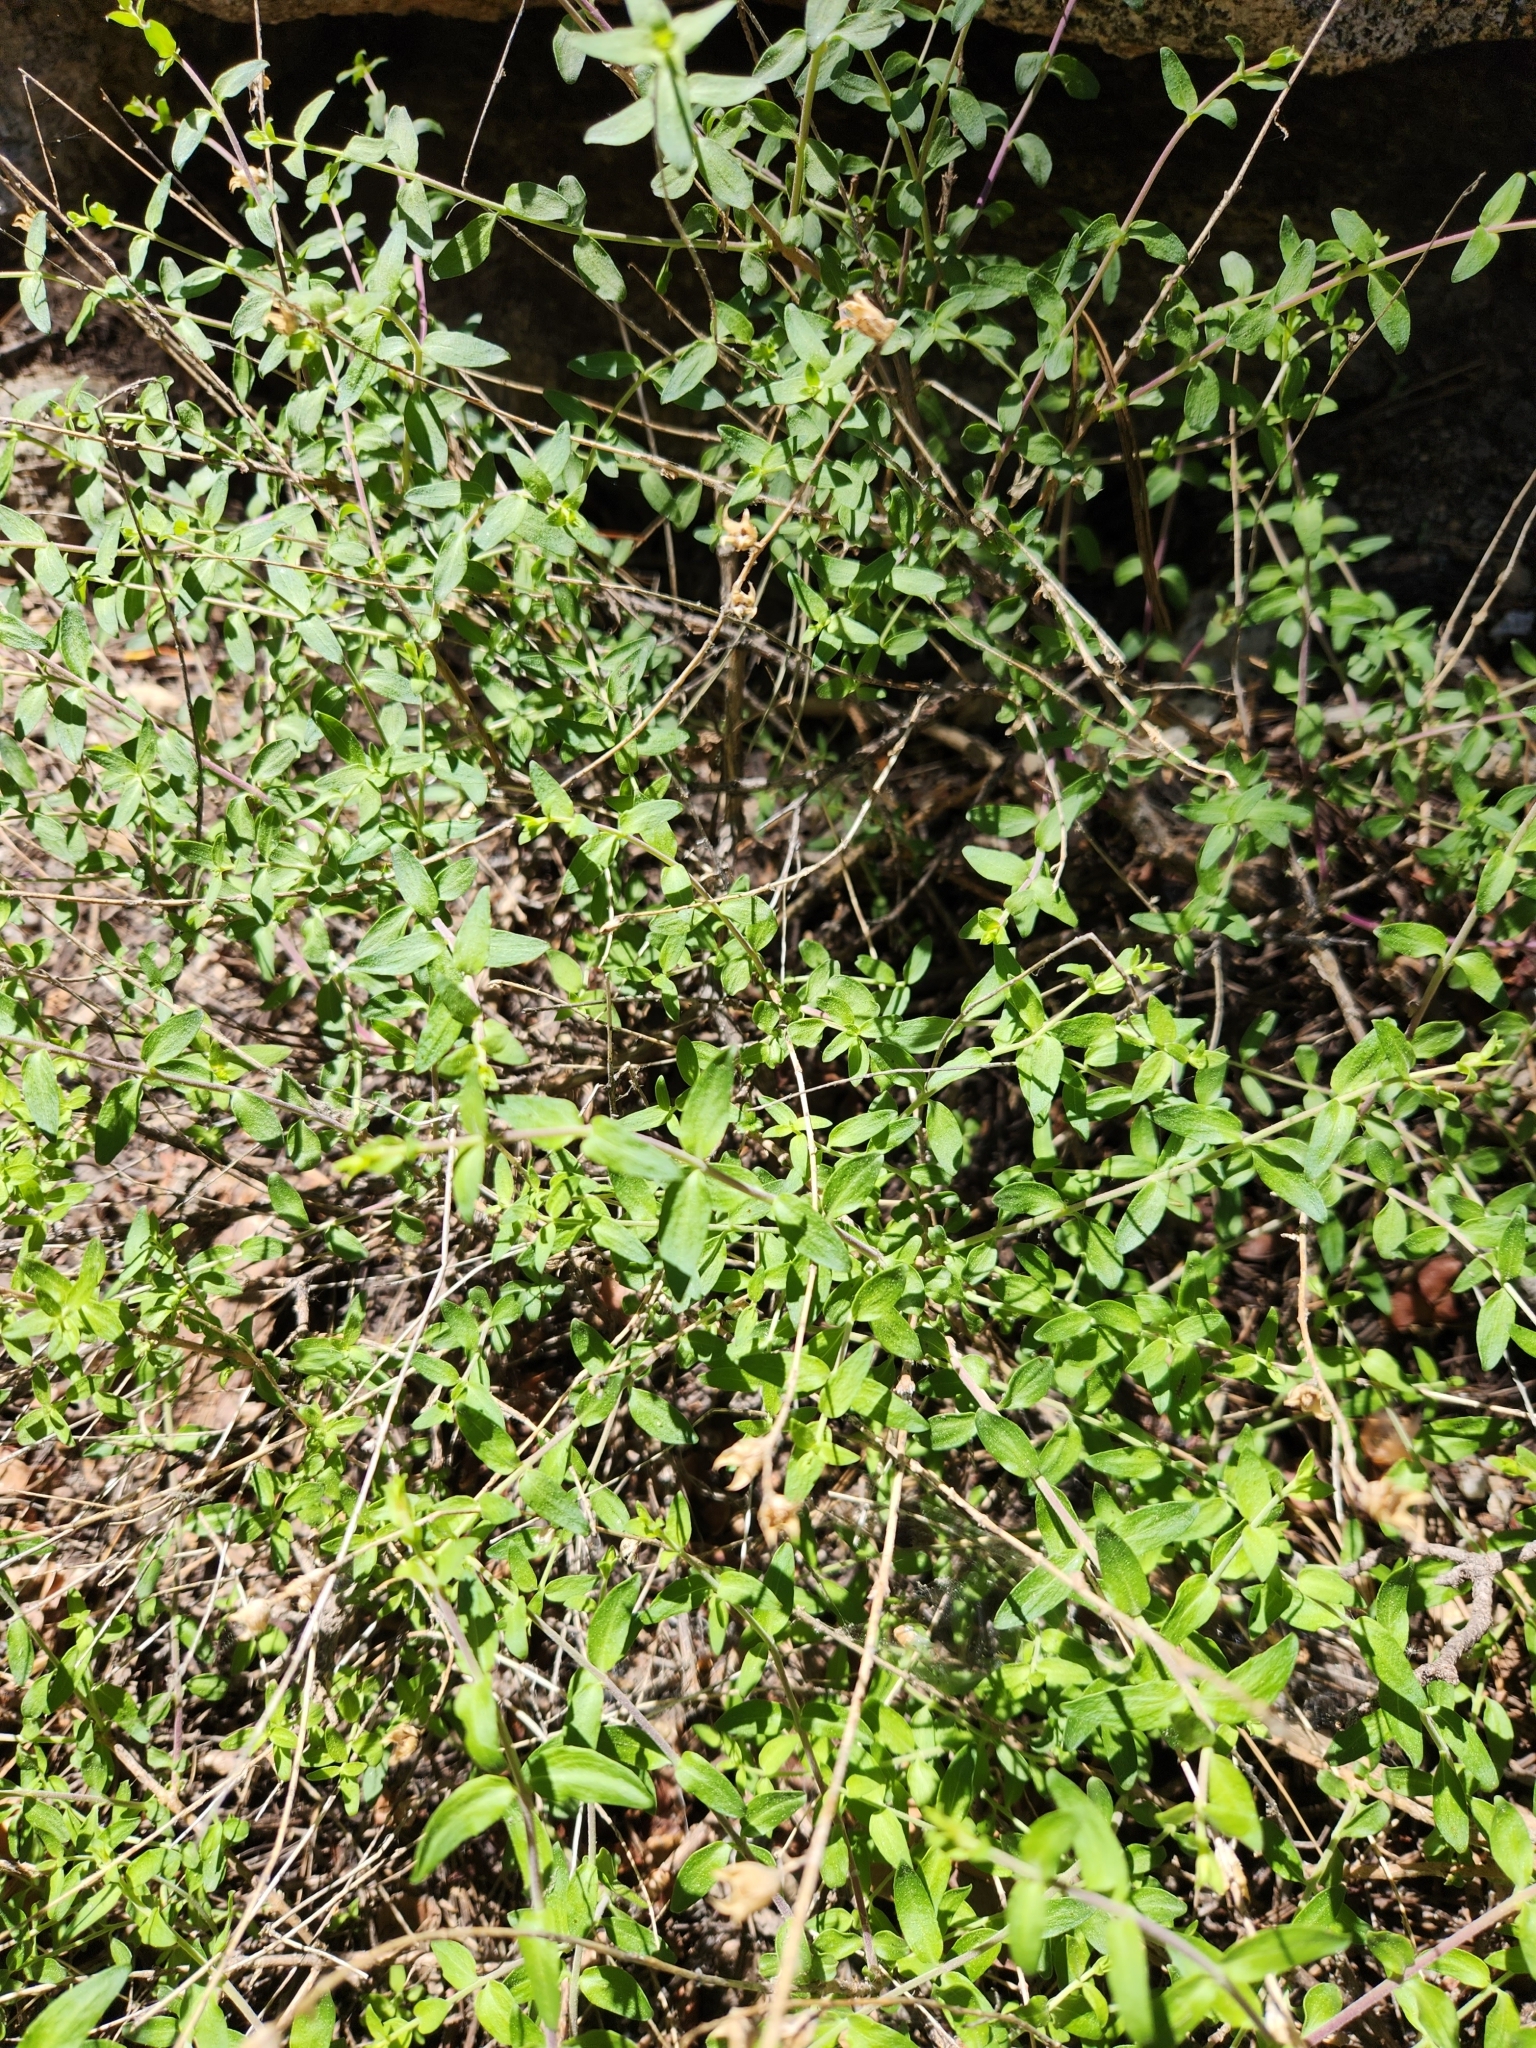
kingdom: Plantae
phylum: Tracheophyta
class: Magnoliopsida
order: Lamiales
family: Plantaginaceae
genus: Keckiella
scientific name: Keckiella rothrockii
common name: Rothrock's keckiella
